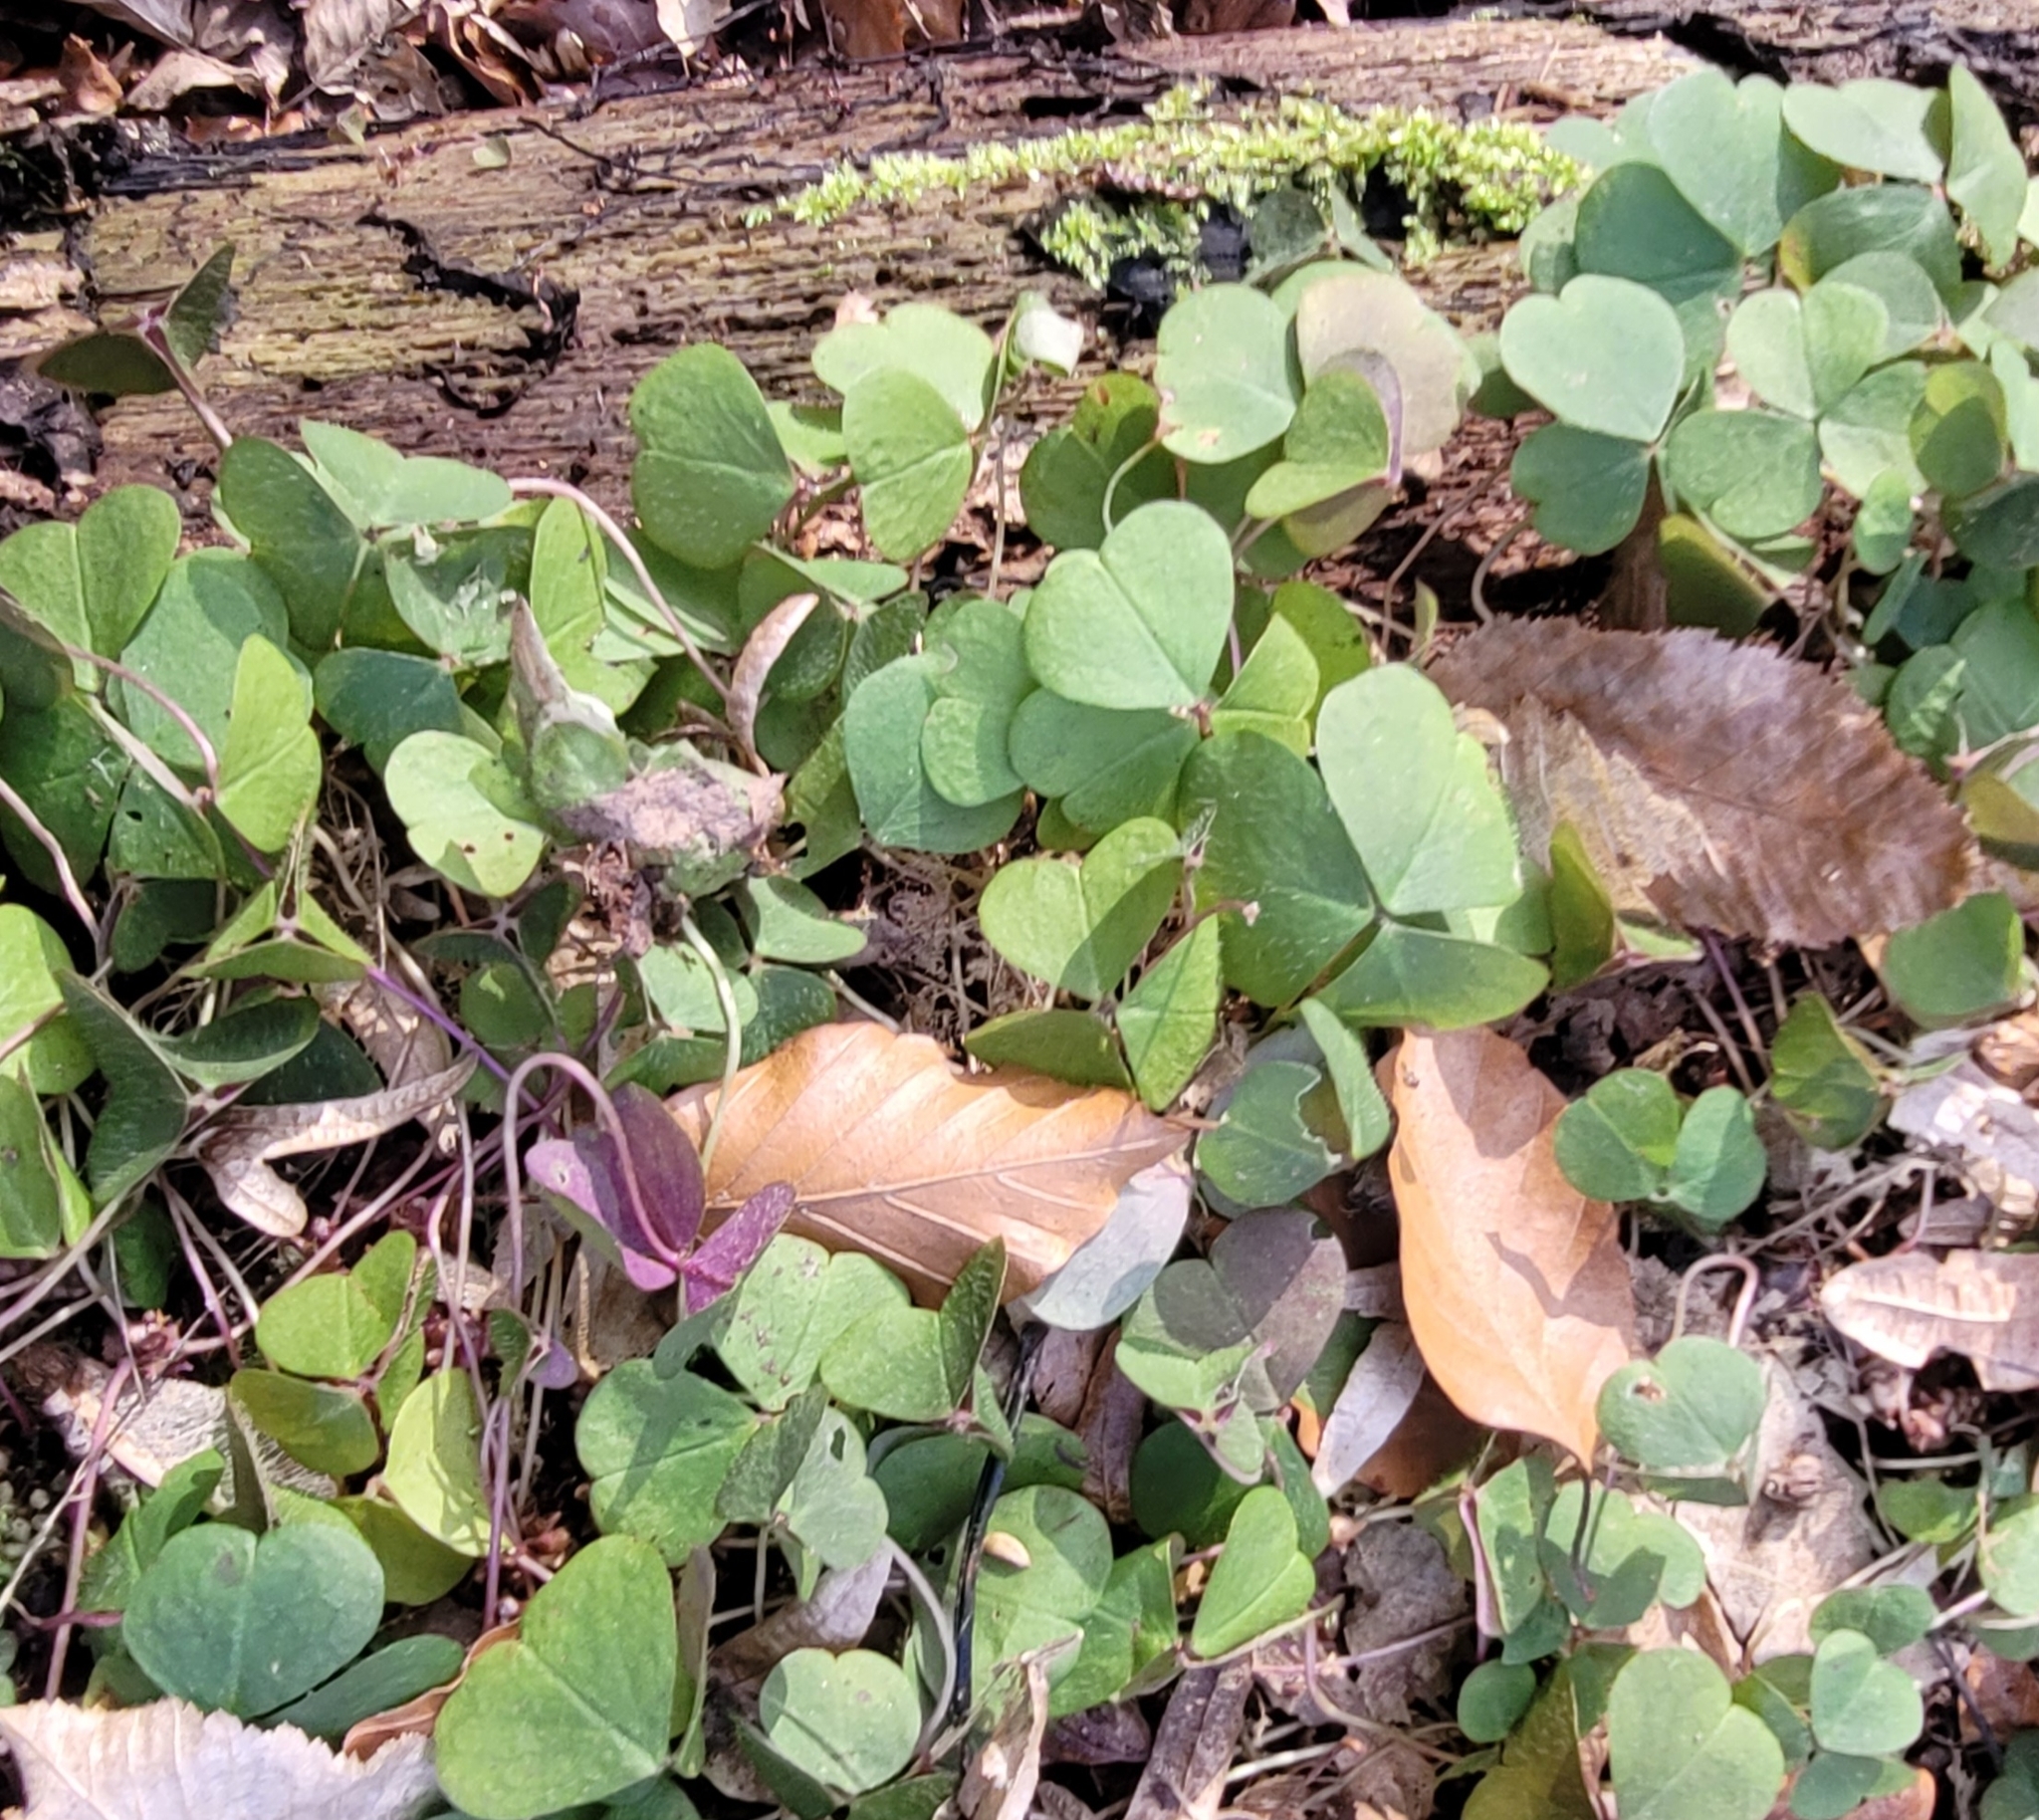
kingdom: Plantae
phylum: Tracheophyta
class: Magnoliopsida
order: Oxalidales
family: Oxalidaceae
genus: Oxalis
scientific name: Oxalis acetosella
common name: Wood-sorrel
